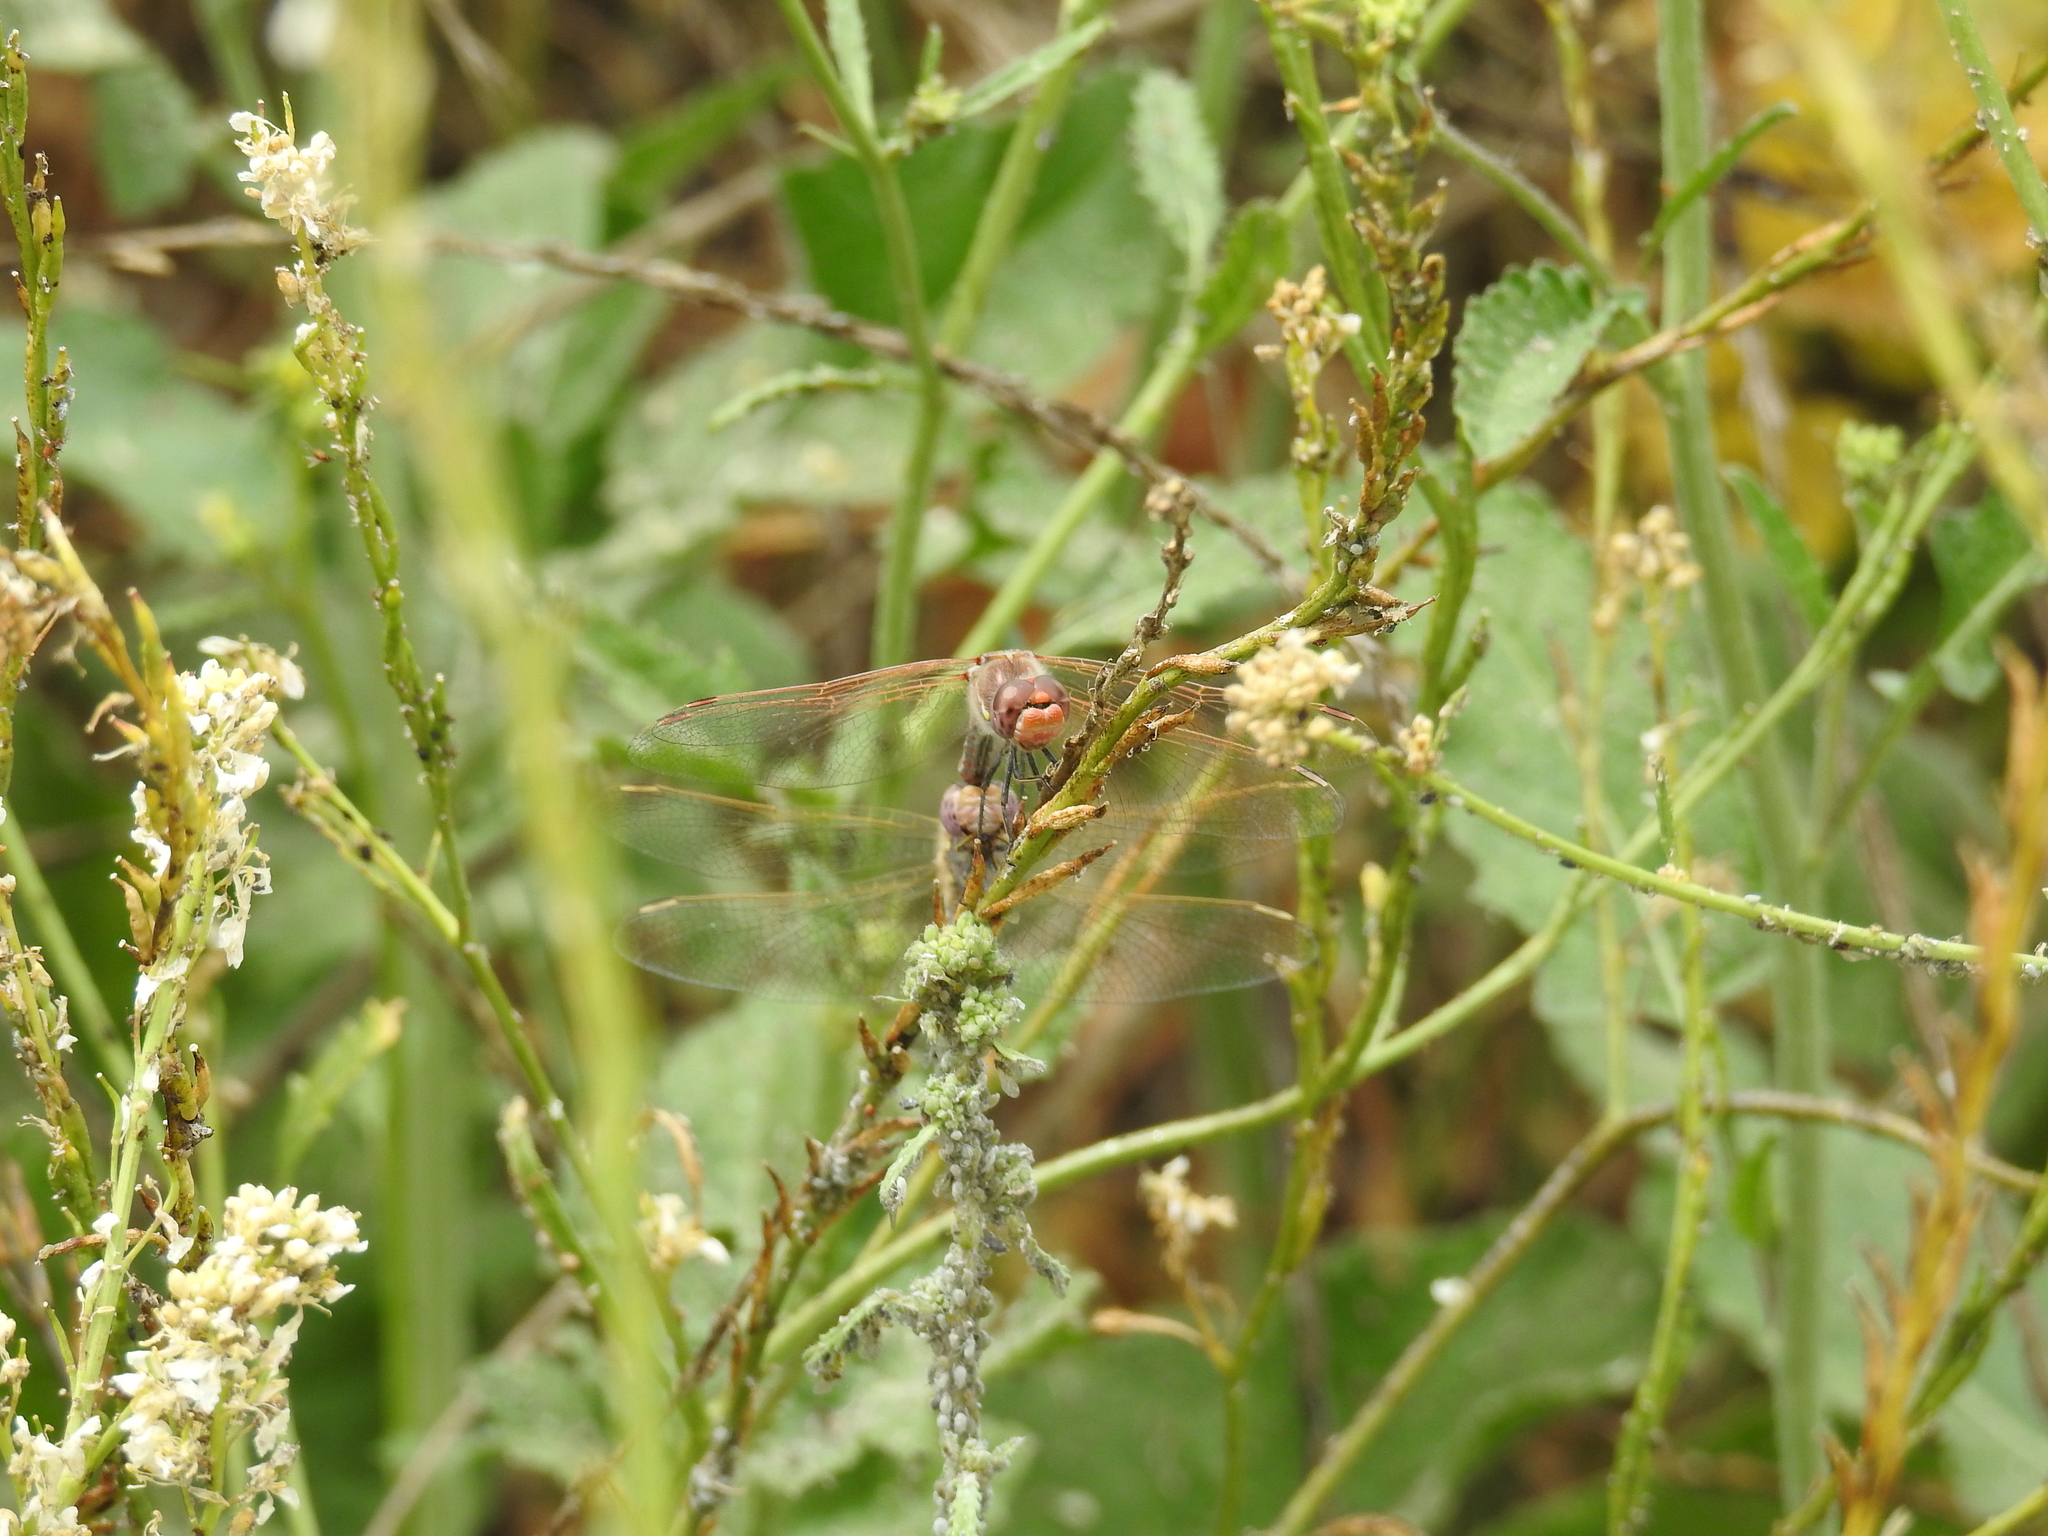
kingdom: Animalia
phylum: Arthropoda
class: Insecta
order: Odonata
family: Libellulidae
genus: Sympetrum
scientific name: Sympetrum corruptum
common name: Variegated meadowhawk
